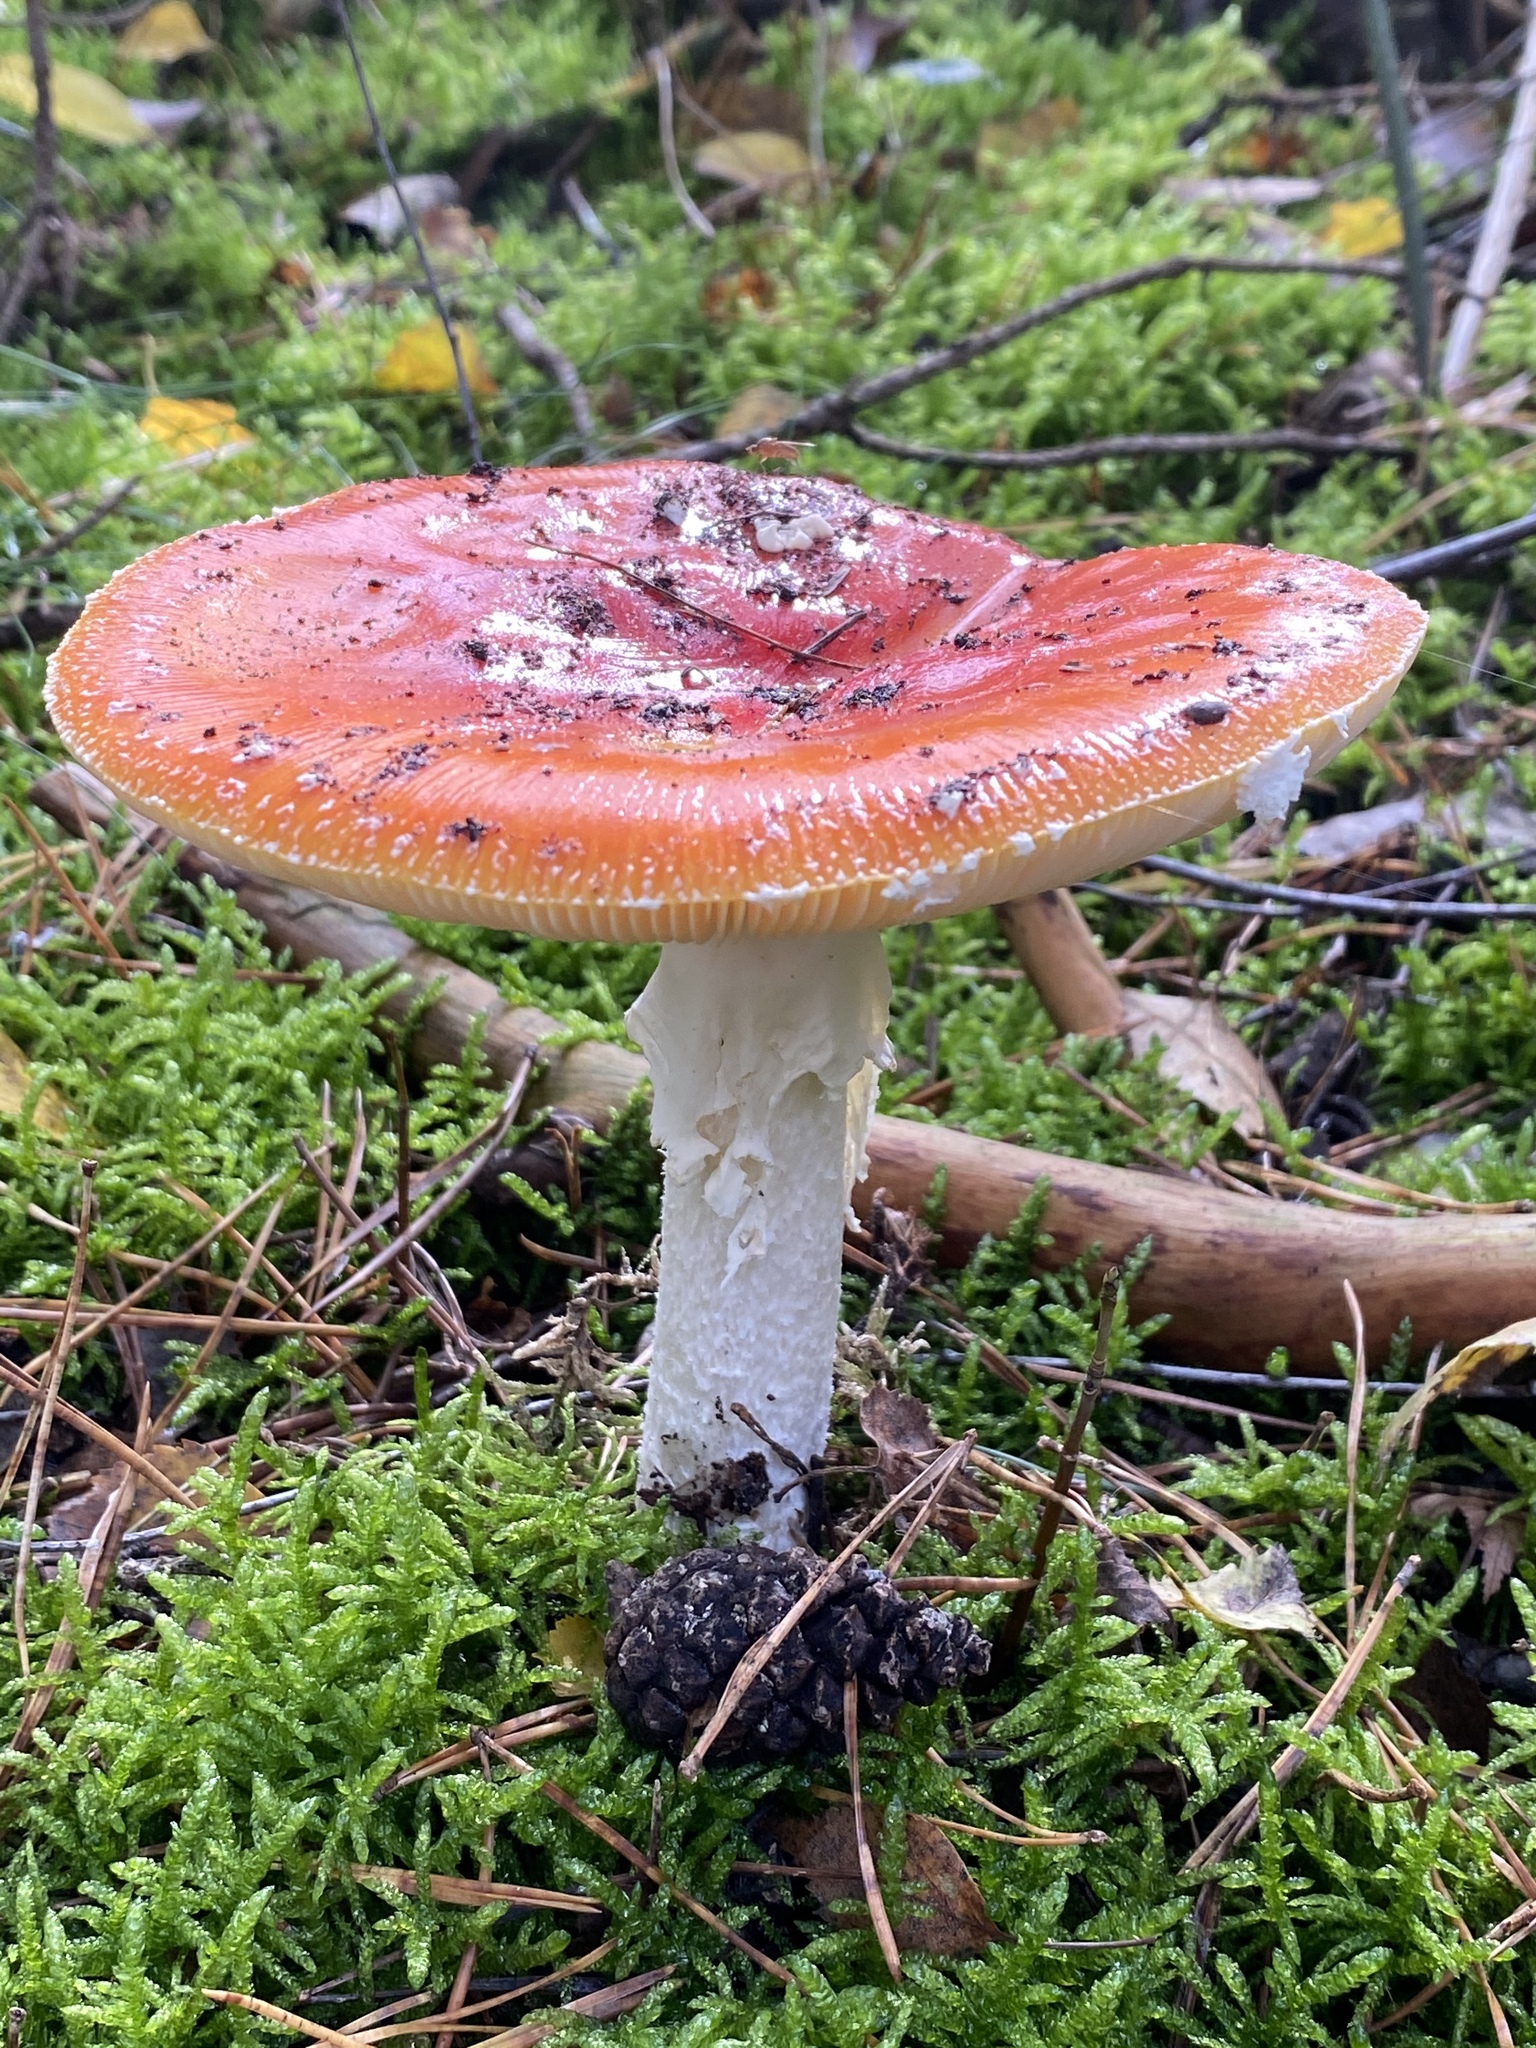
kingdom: Fungi
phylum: Basidiomycota
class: Agaricomycetes
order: Agaricales
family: Amanitaceae
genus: Amanita
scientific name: Amanita muscaria
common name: Fly agaric
